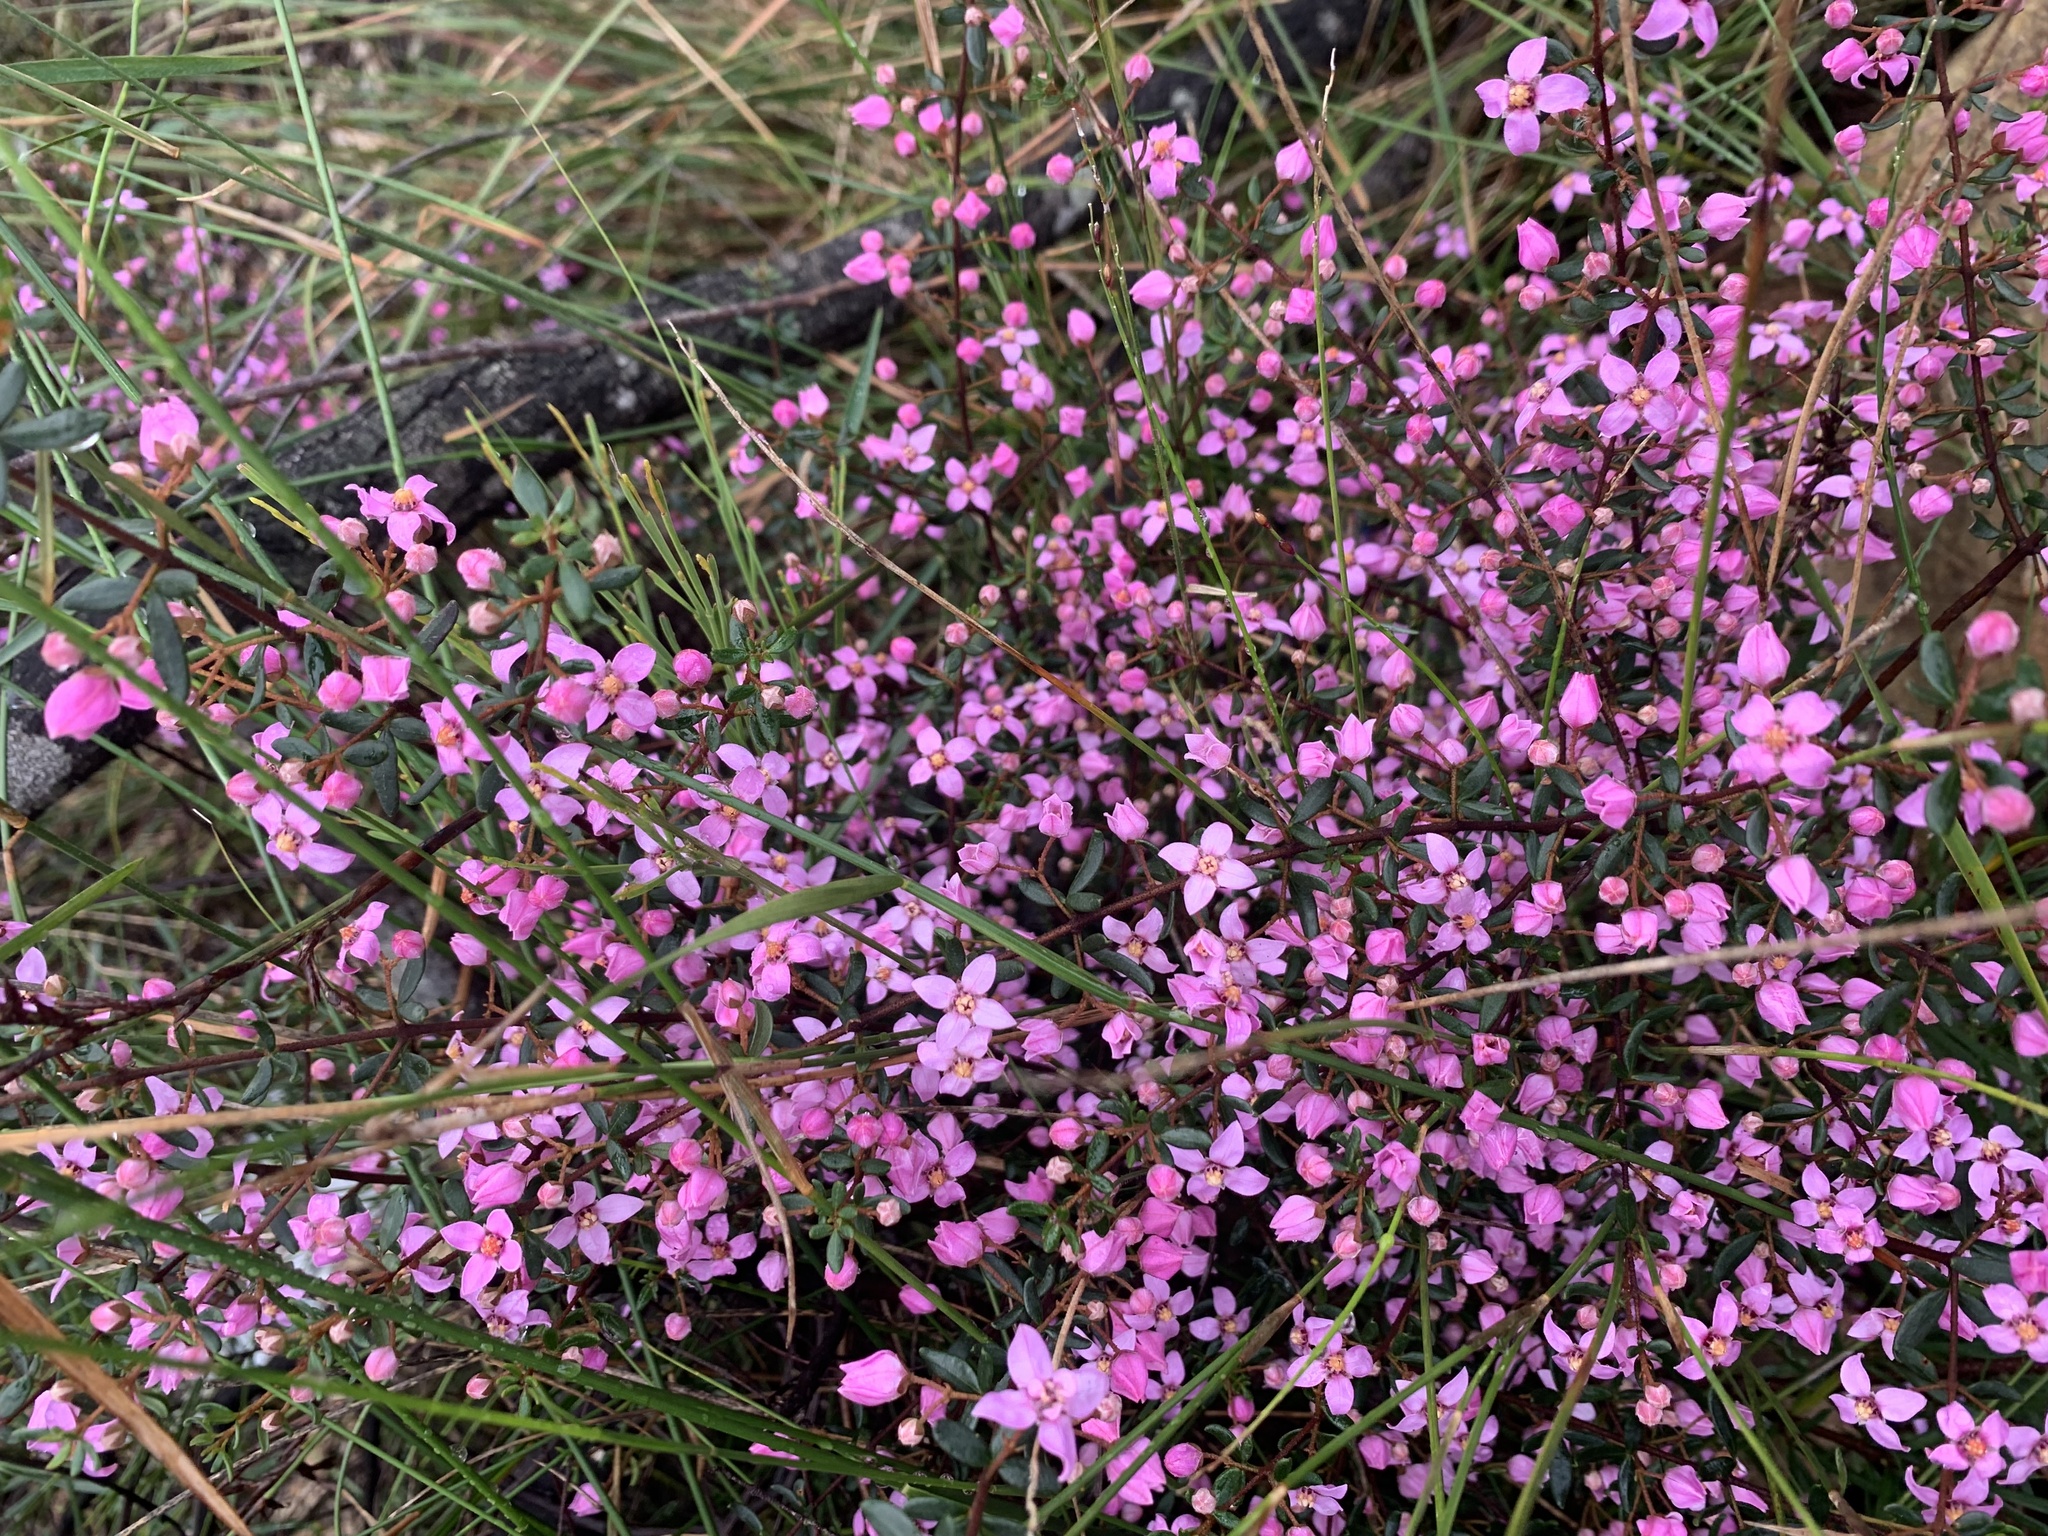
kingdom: Plantae
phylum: Tracheophyta
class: Magnoliopsida
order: Sapindales
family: Rutaceae
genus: Boronia
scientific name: Boronia ledifolia
